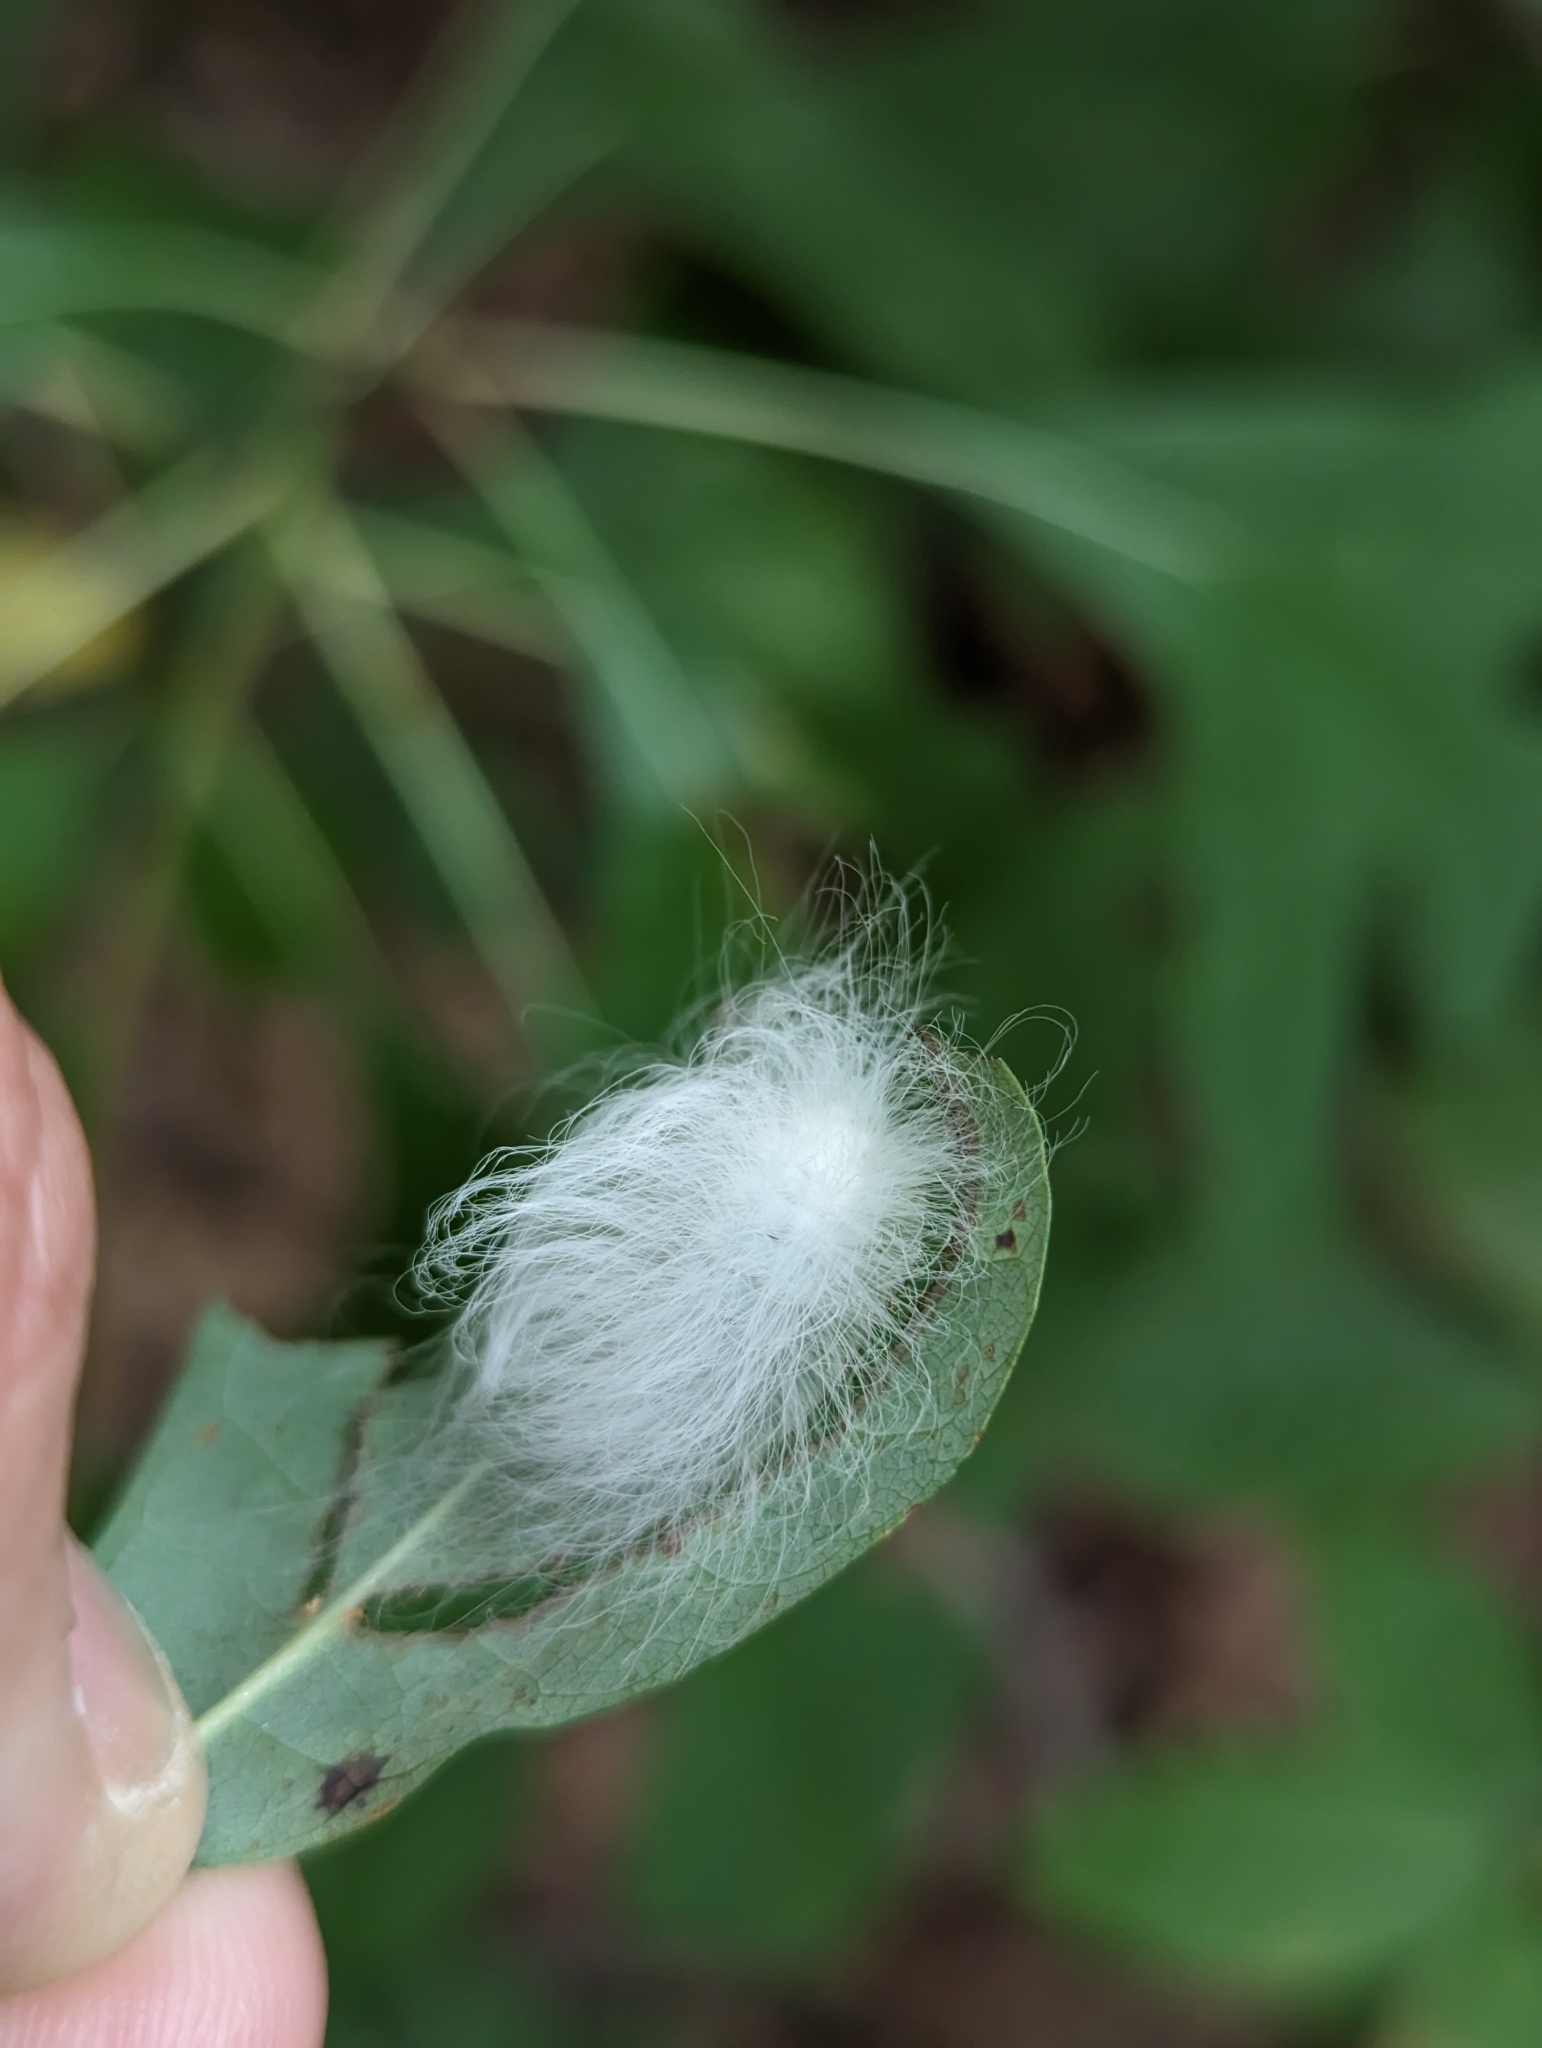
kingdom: Animalia
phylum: Arthropoda
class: Insecta
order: Lepidoptera
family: Megalopygidae
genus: Megalopyge
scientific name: Megalopyge crispata
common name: Black-waved flannel moth
